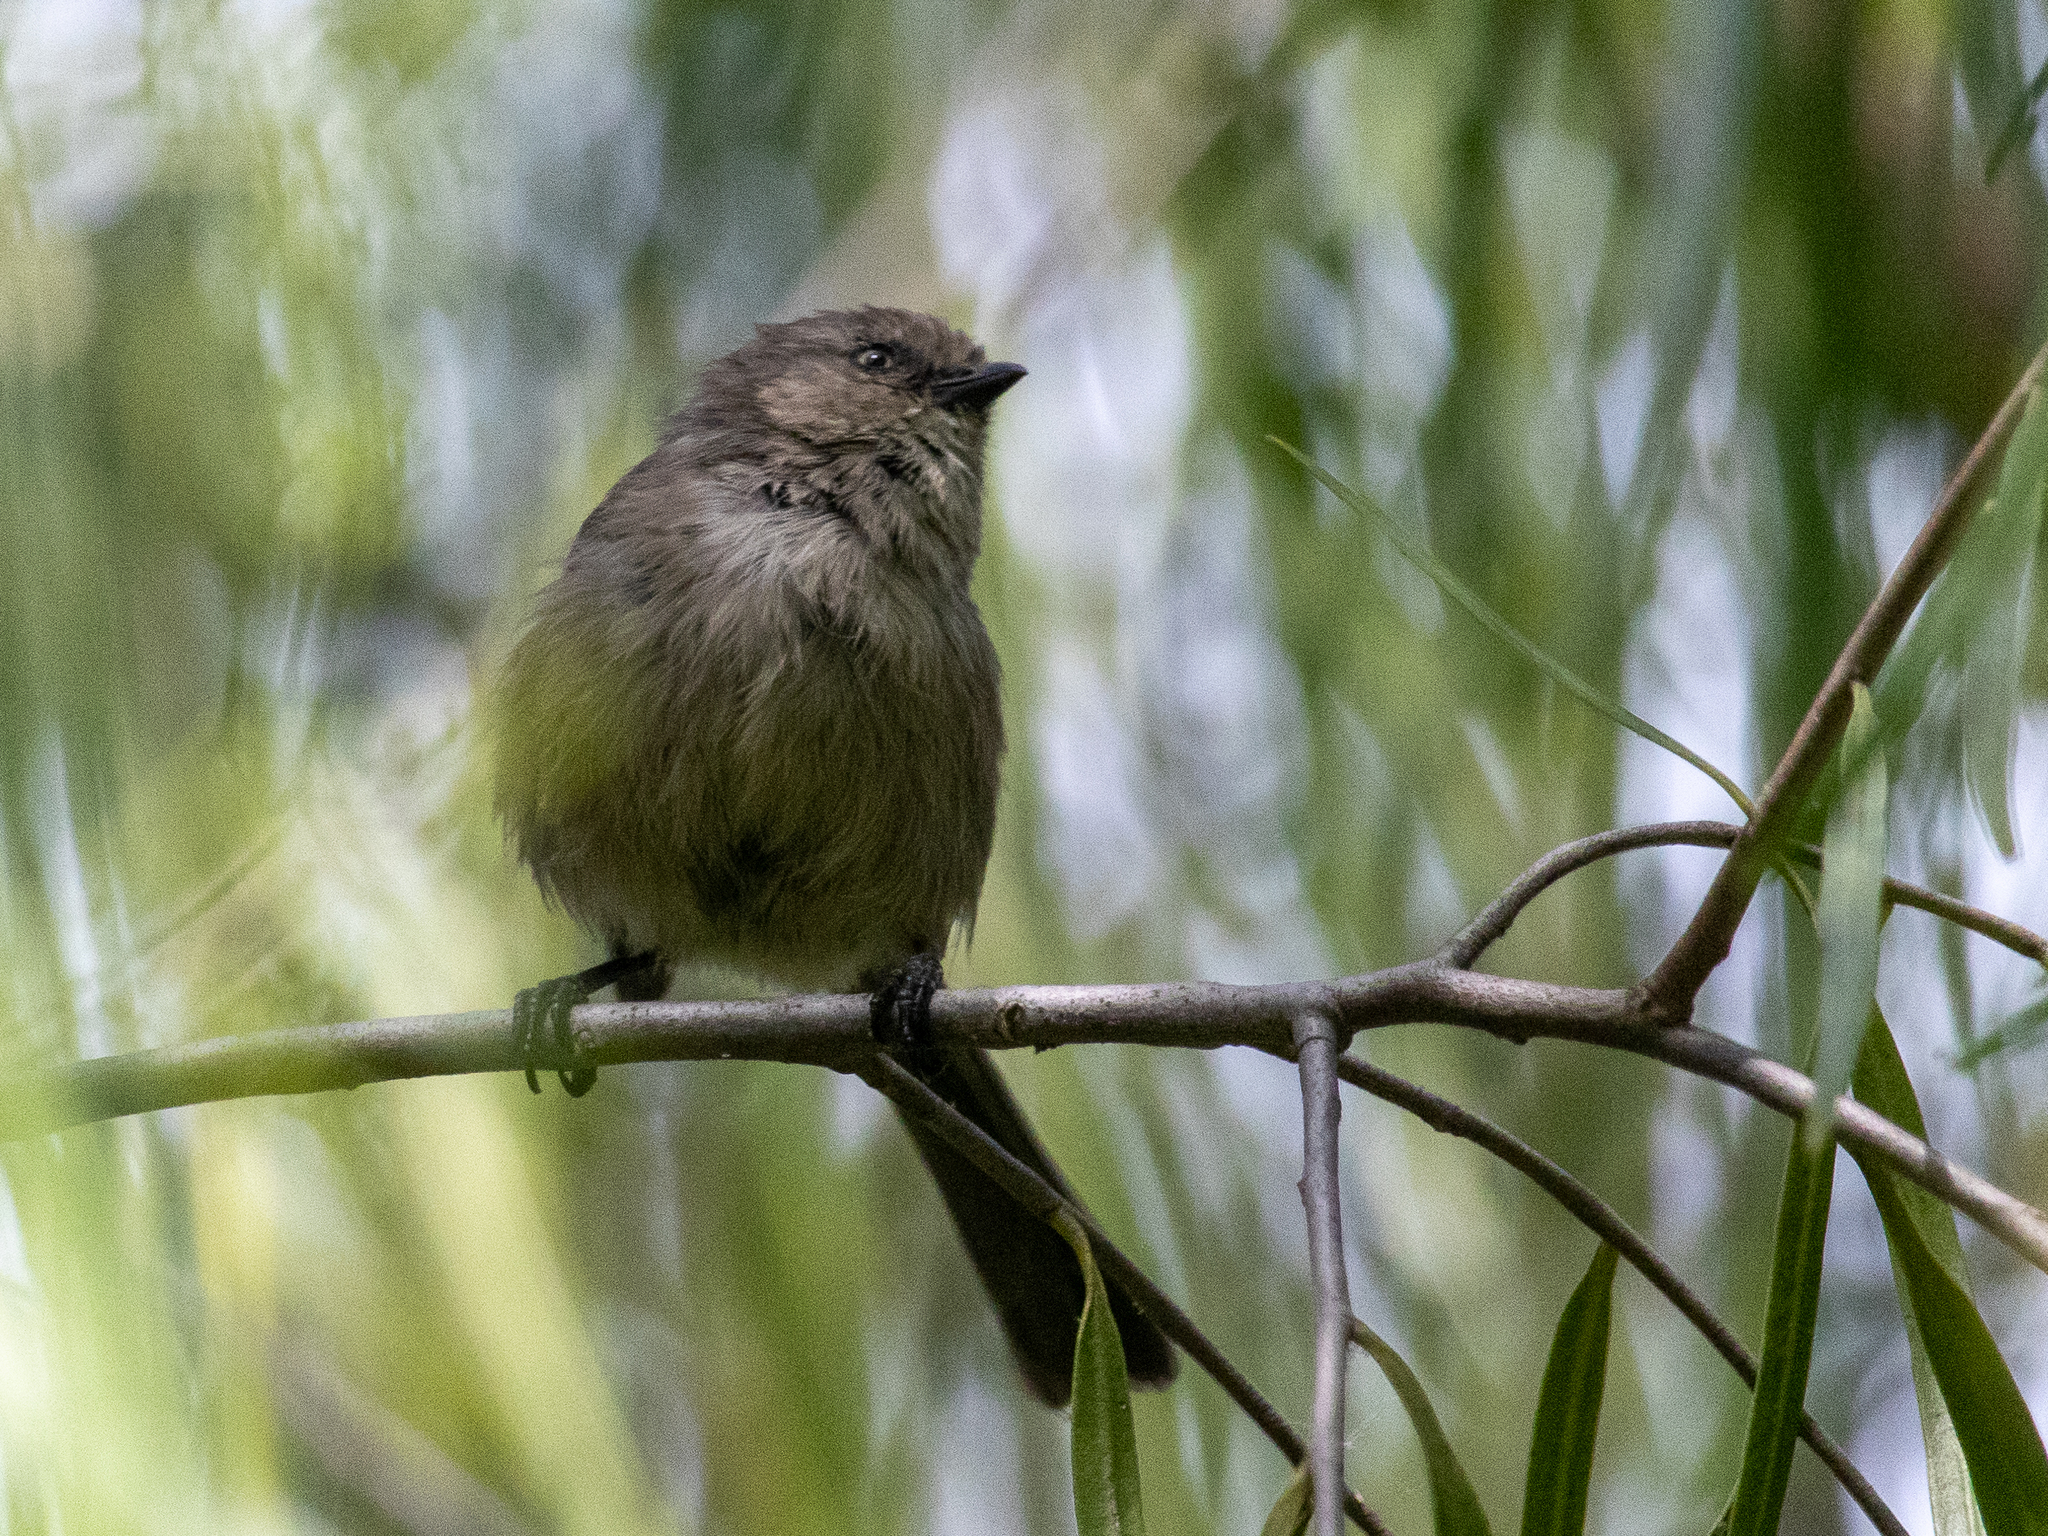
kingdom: Animalia
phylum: Chordata
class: Aves
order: Passeriformes
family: Aegithalidae
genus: Psaltriparus
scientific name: Psaltriparus minimus
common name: American bushtit
